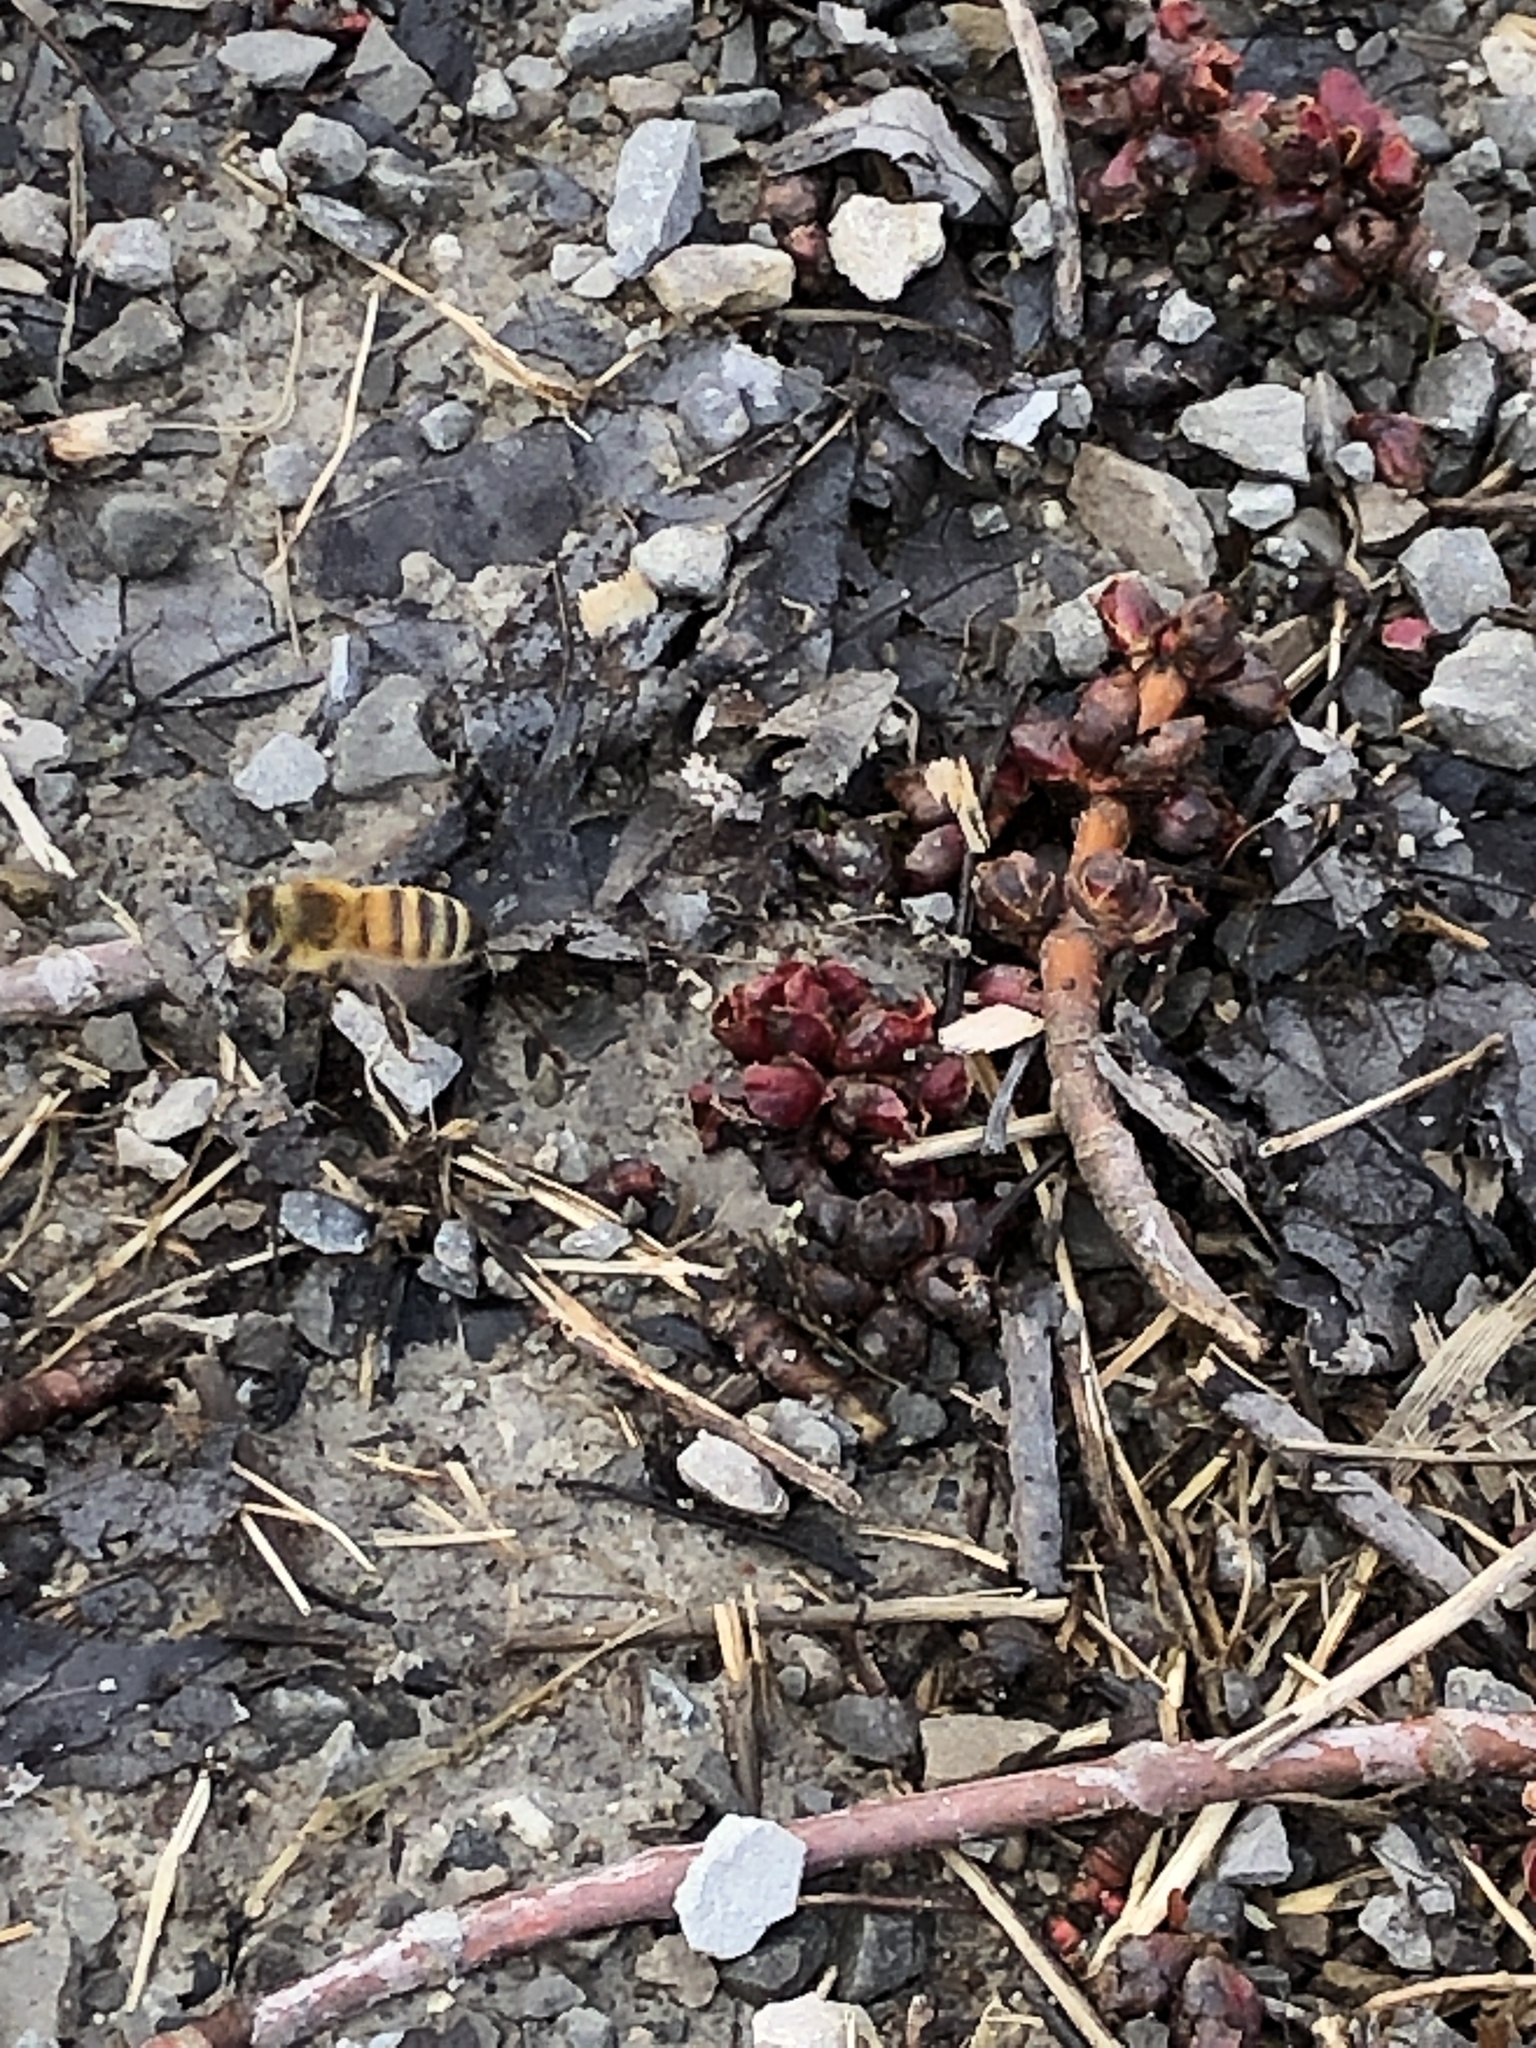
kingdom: Animalia
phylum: Arthropoda
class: Insecta
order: Hymenoptera
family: Apidae
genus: Apis
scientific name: Apis mellifera
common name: Honey bee
